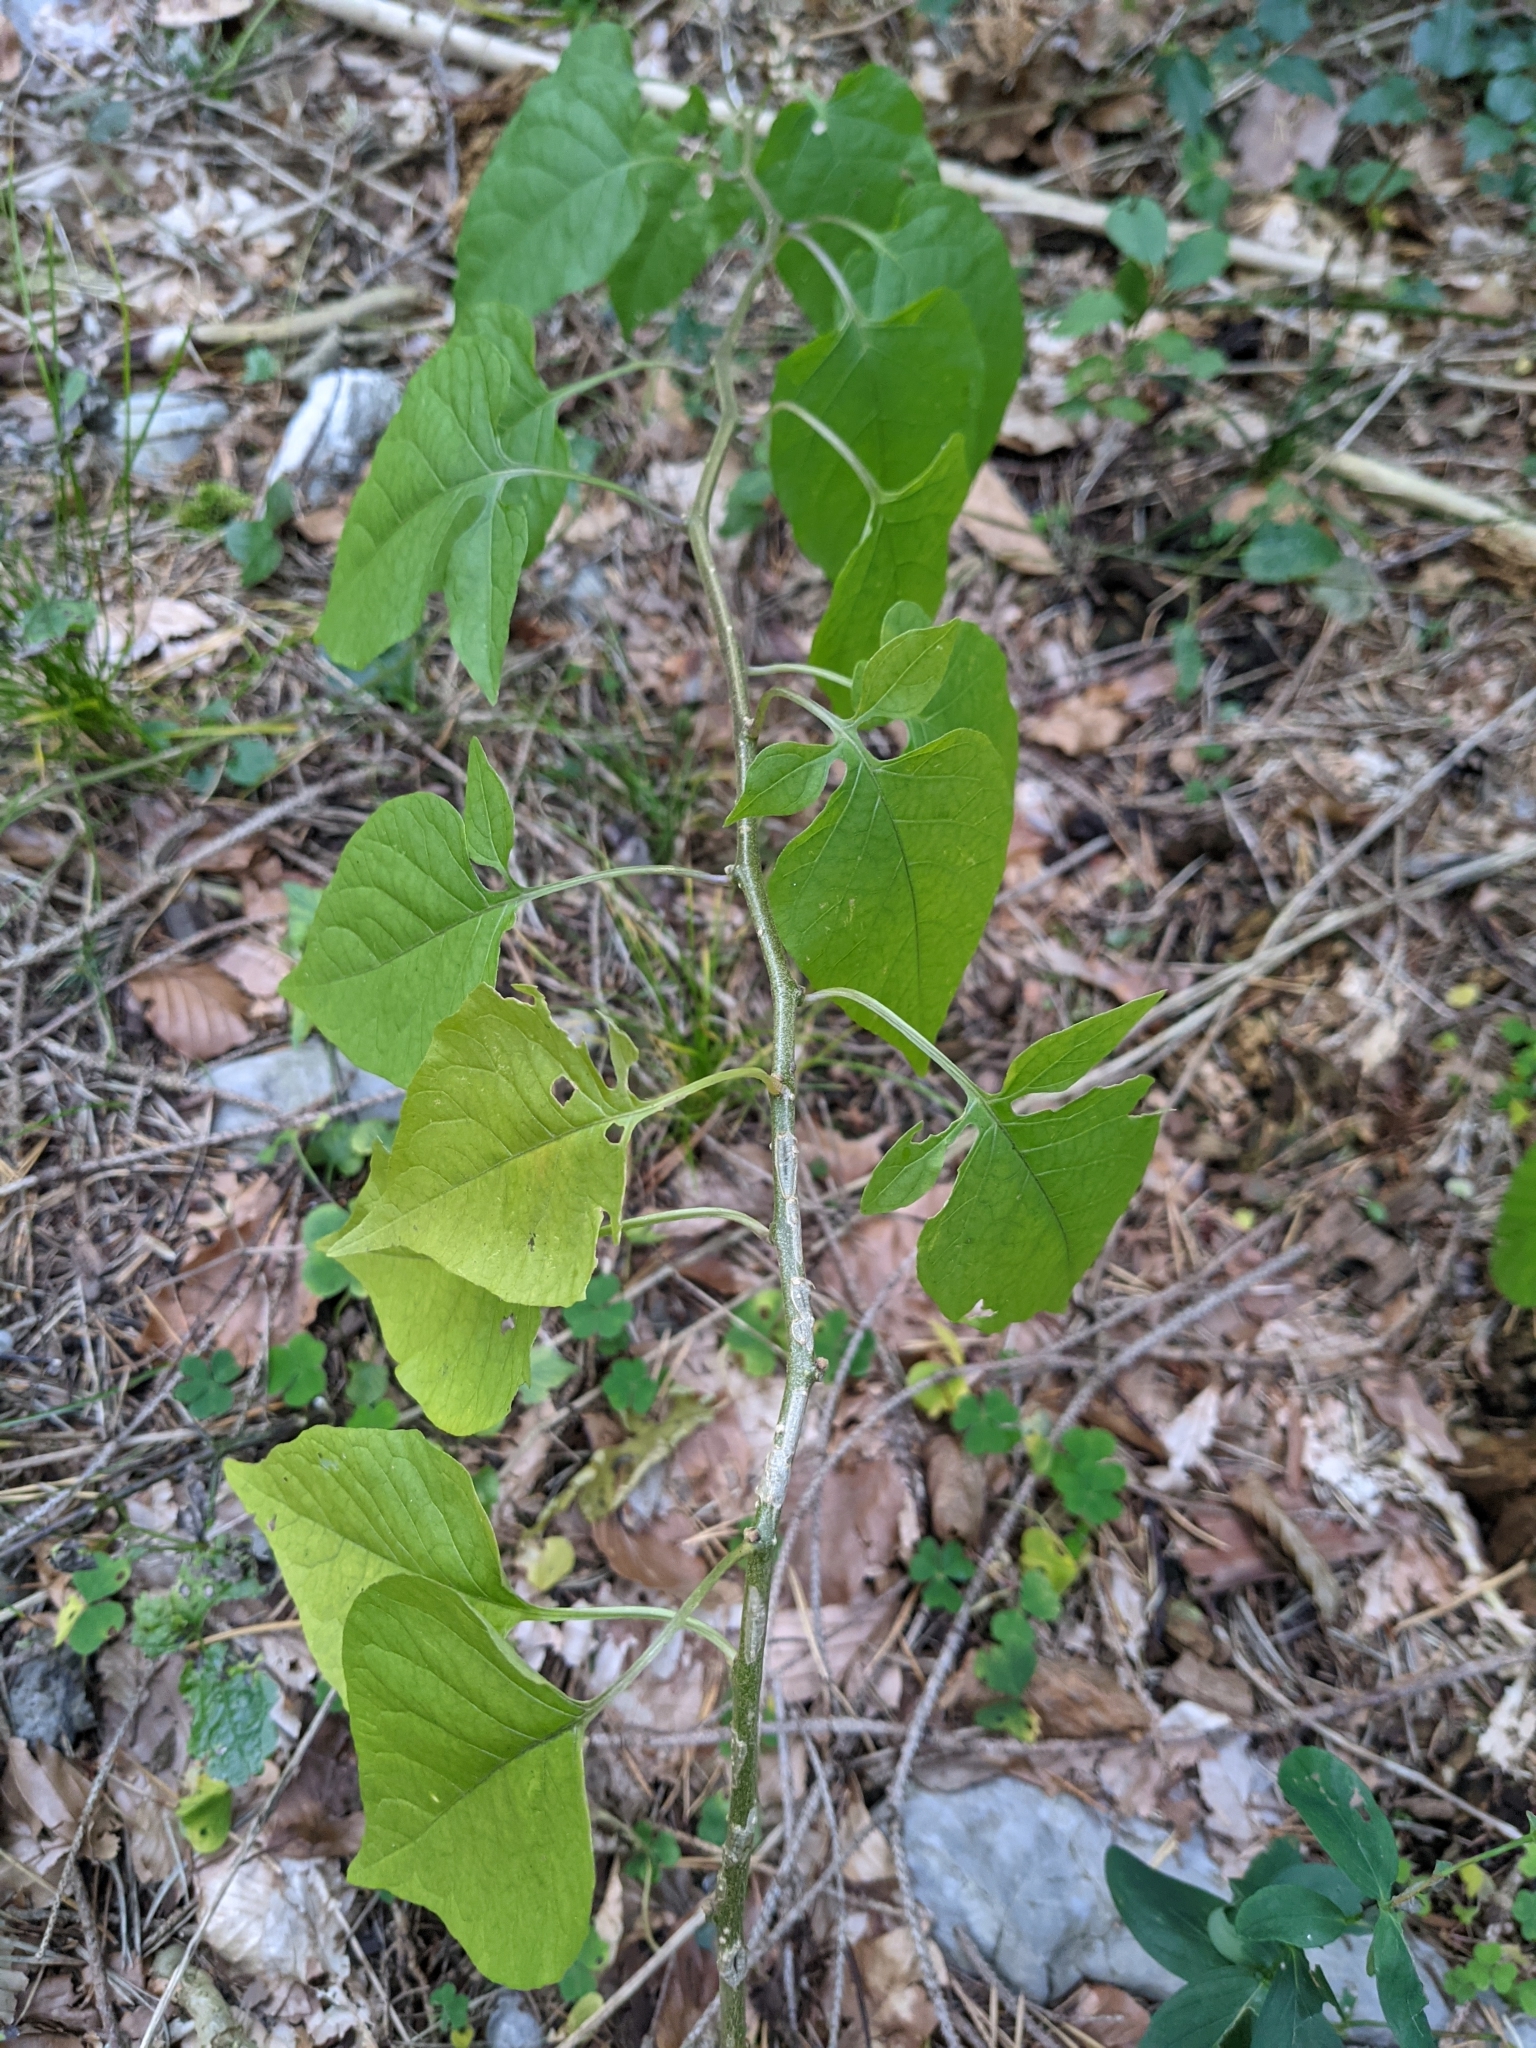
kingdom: Plantae
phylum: Tracheophyta
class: Magnoliopsida
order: Solanales
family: Solanaceae
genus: Solanum
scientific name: Solanum dulcamara
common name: Climbing nightshade
